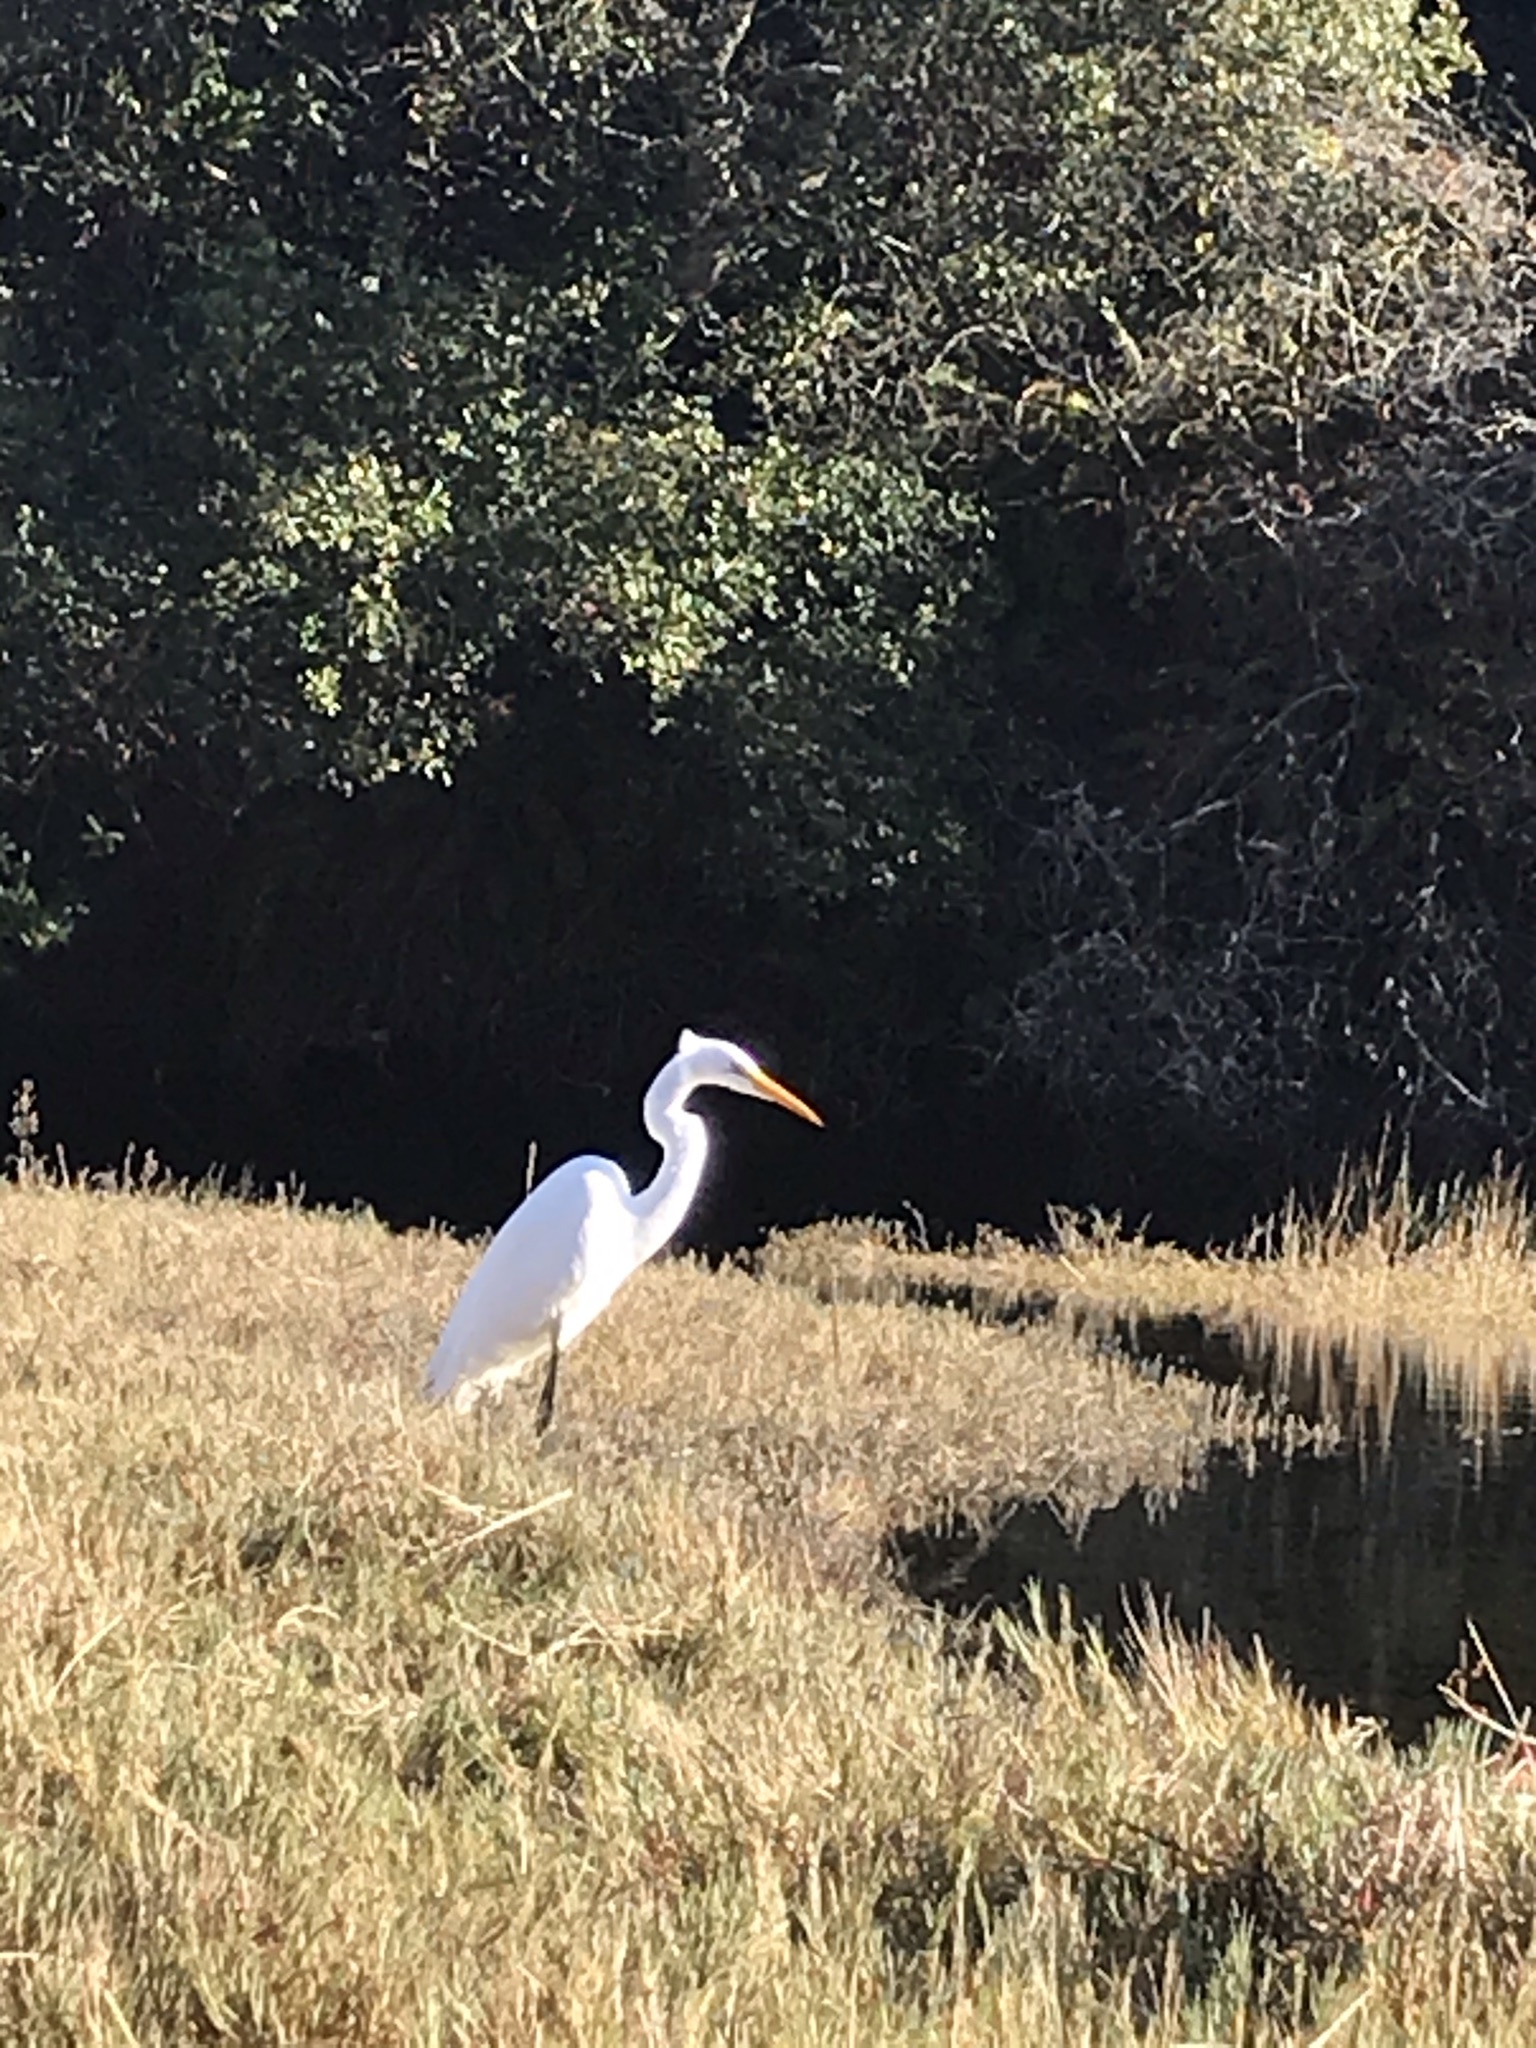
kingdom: Animalia
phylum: Chordata
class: Aves
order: Pelecaniformes
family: Ardeidae
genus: Ardea
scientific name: Ardea alba
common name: Great egret
